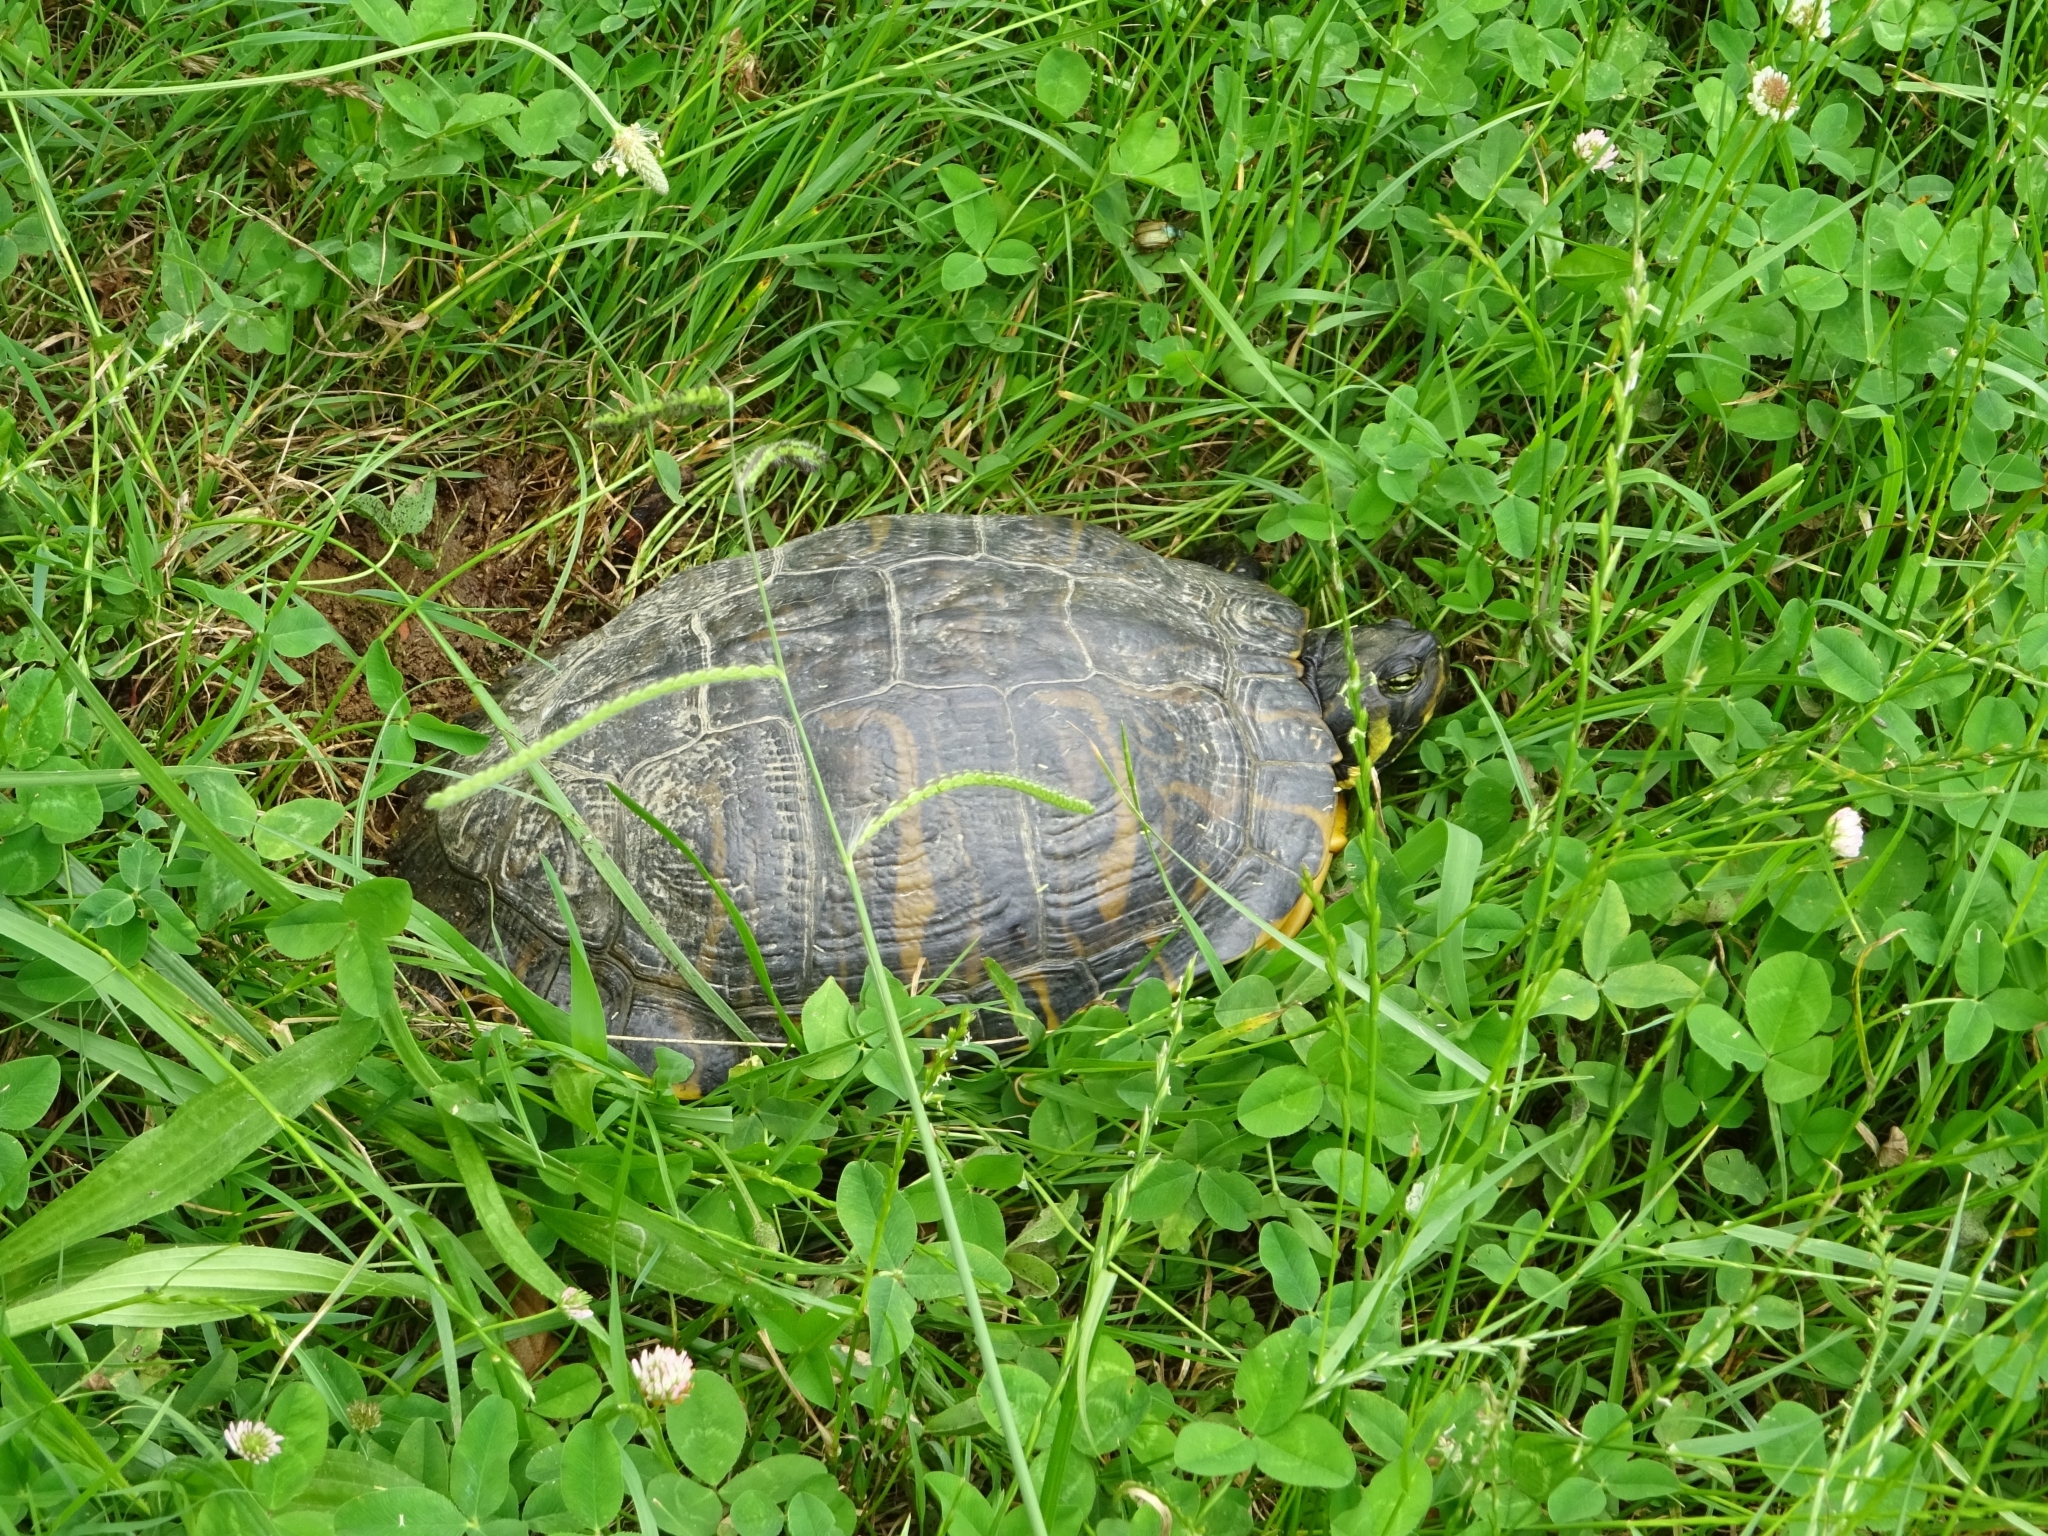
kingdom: Animalia
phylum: Chordata
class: Testudines
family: Emydidae
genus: Trachemys
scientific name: Trachemys scripta
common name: Slider
